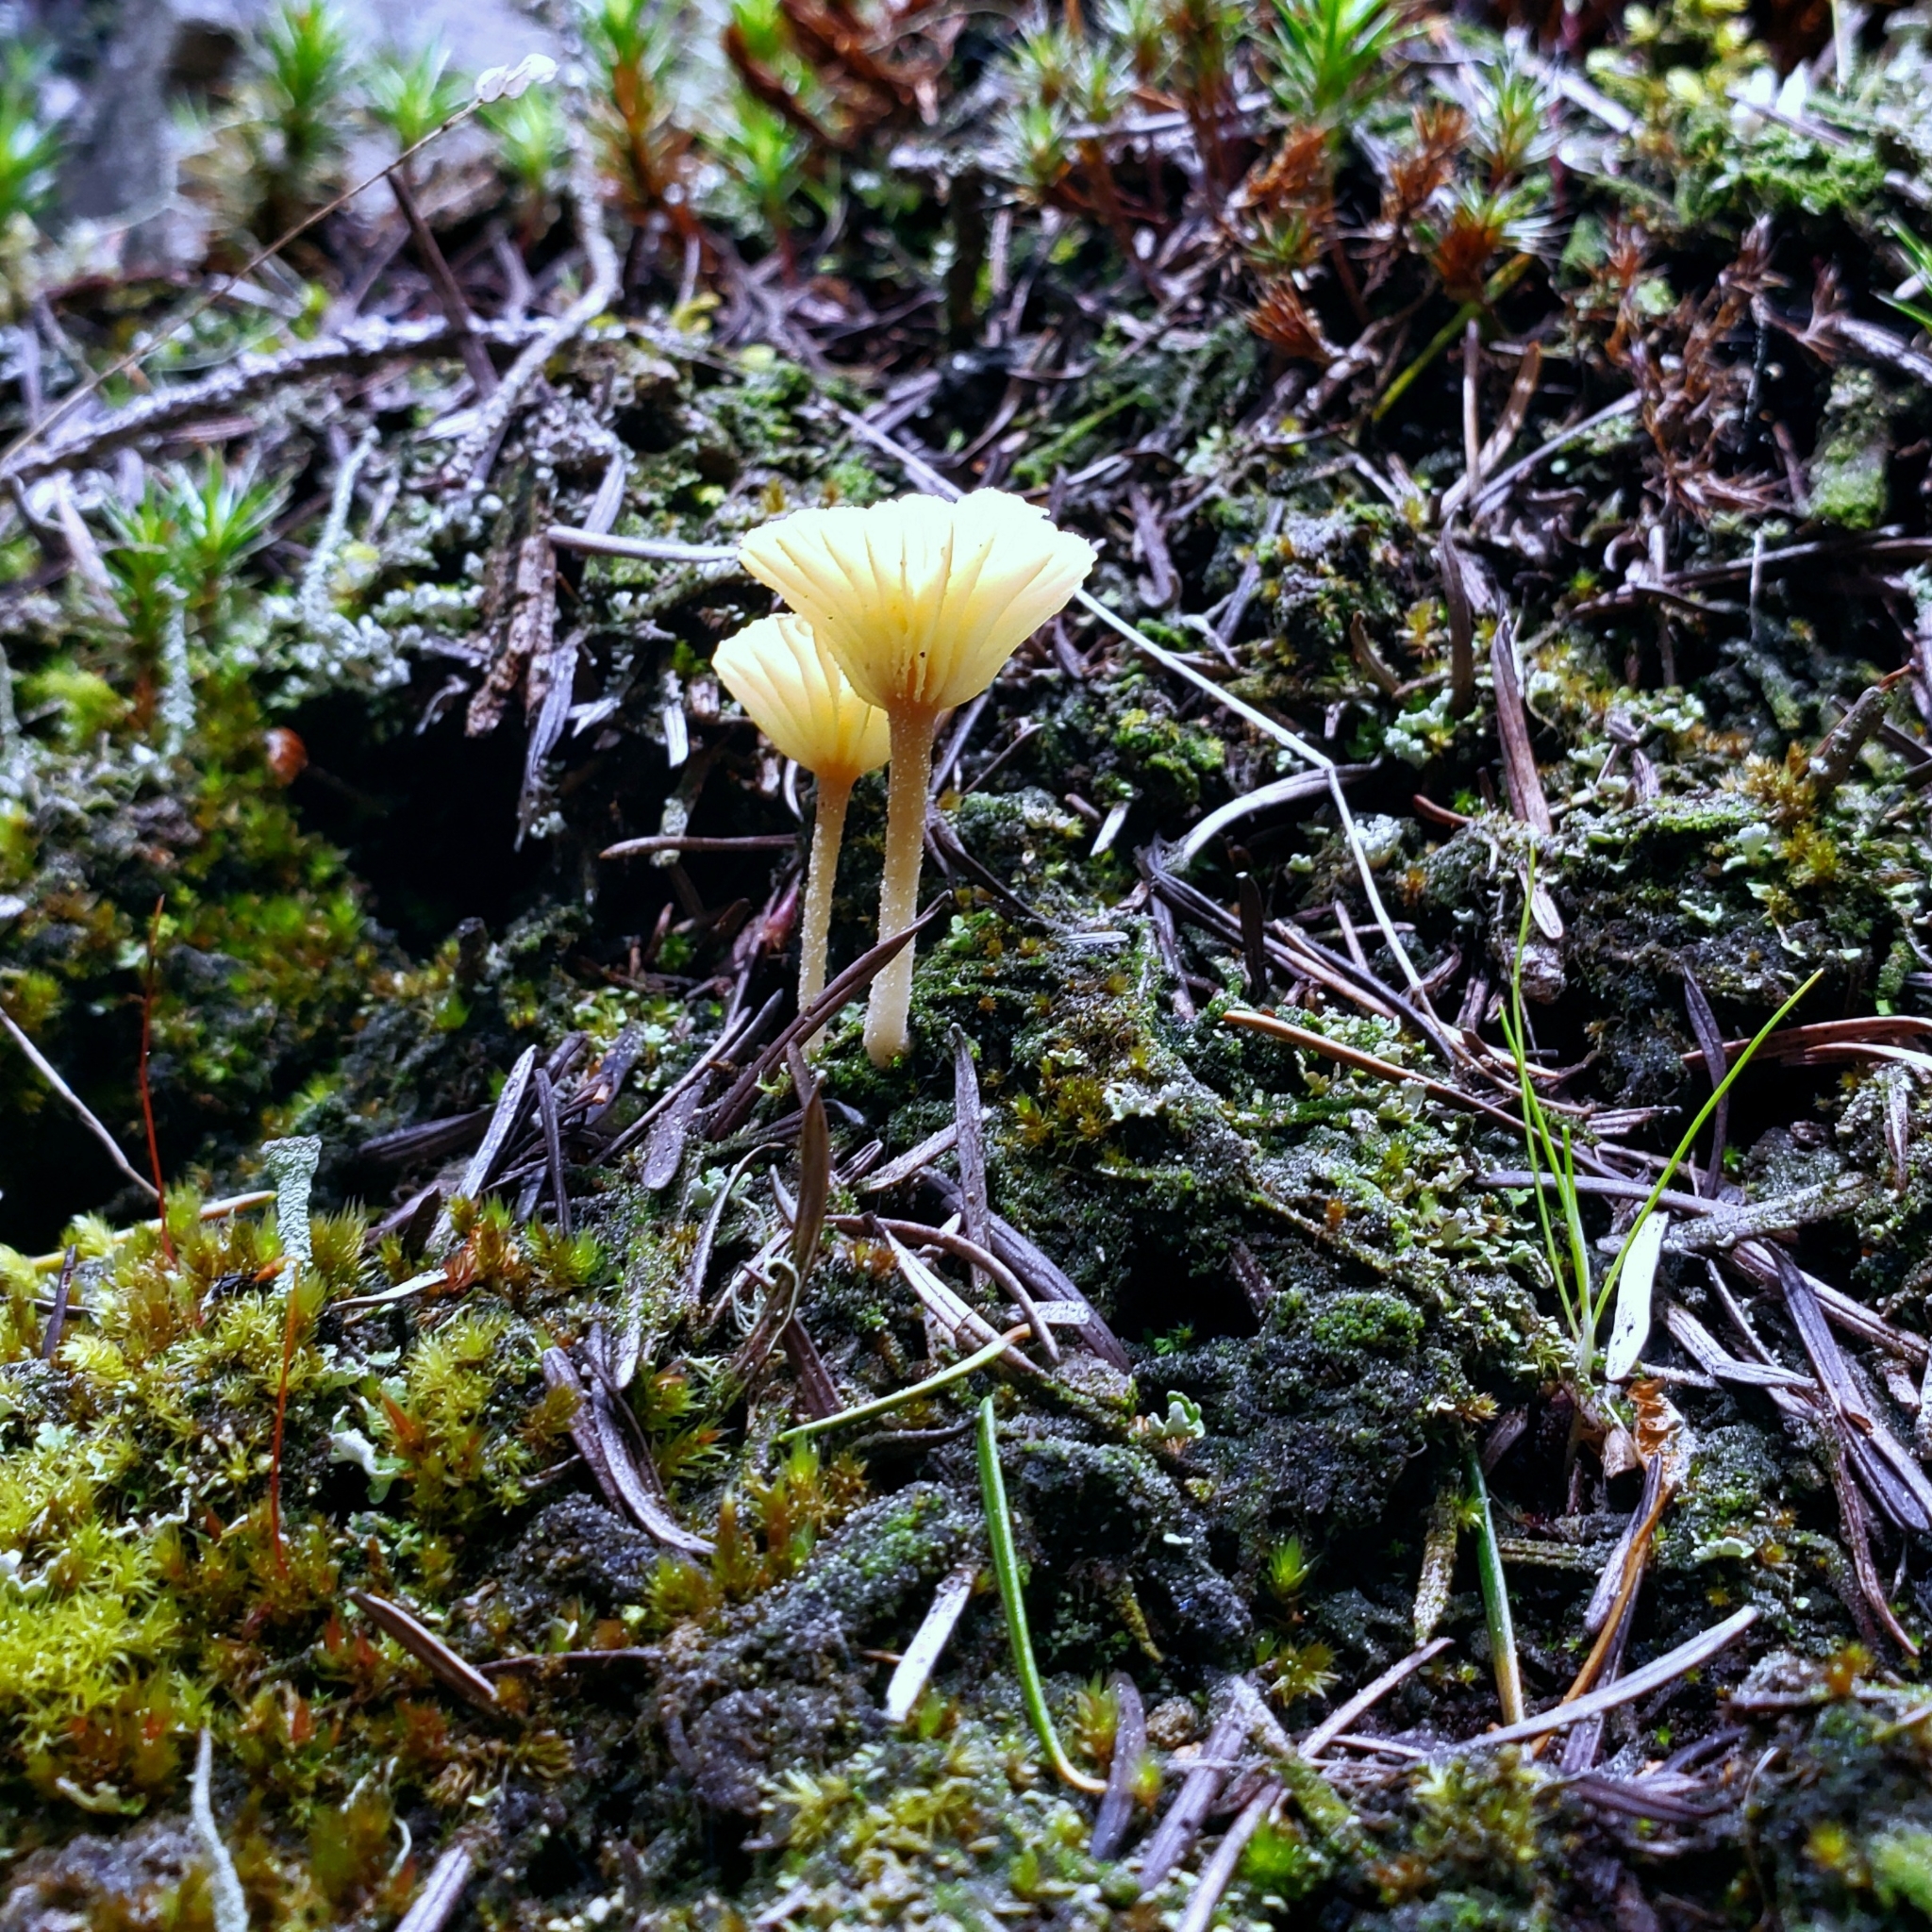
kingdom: Fungi
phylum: Basidiomycota
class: Agaricomycetes
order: Agaricales
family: Hygrophoraceae
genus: Lichenomphalia
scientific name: Lichenomphalia
